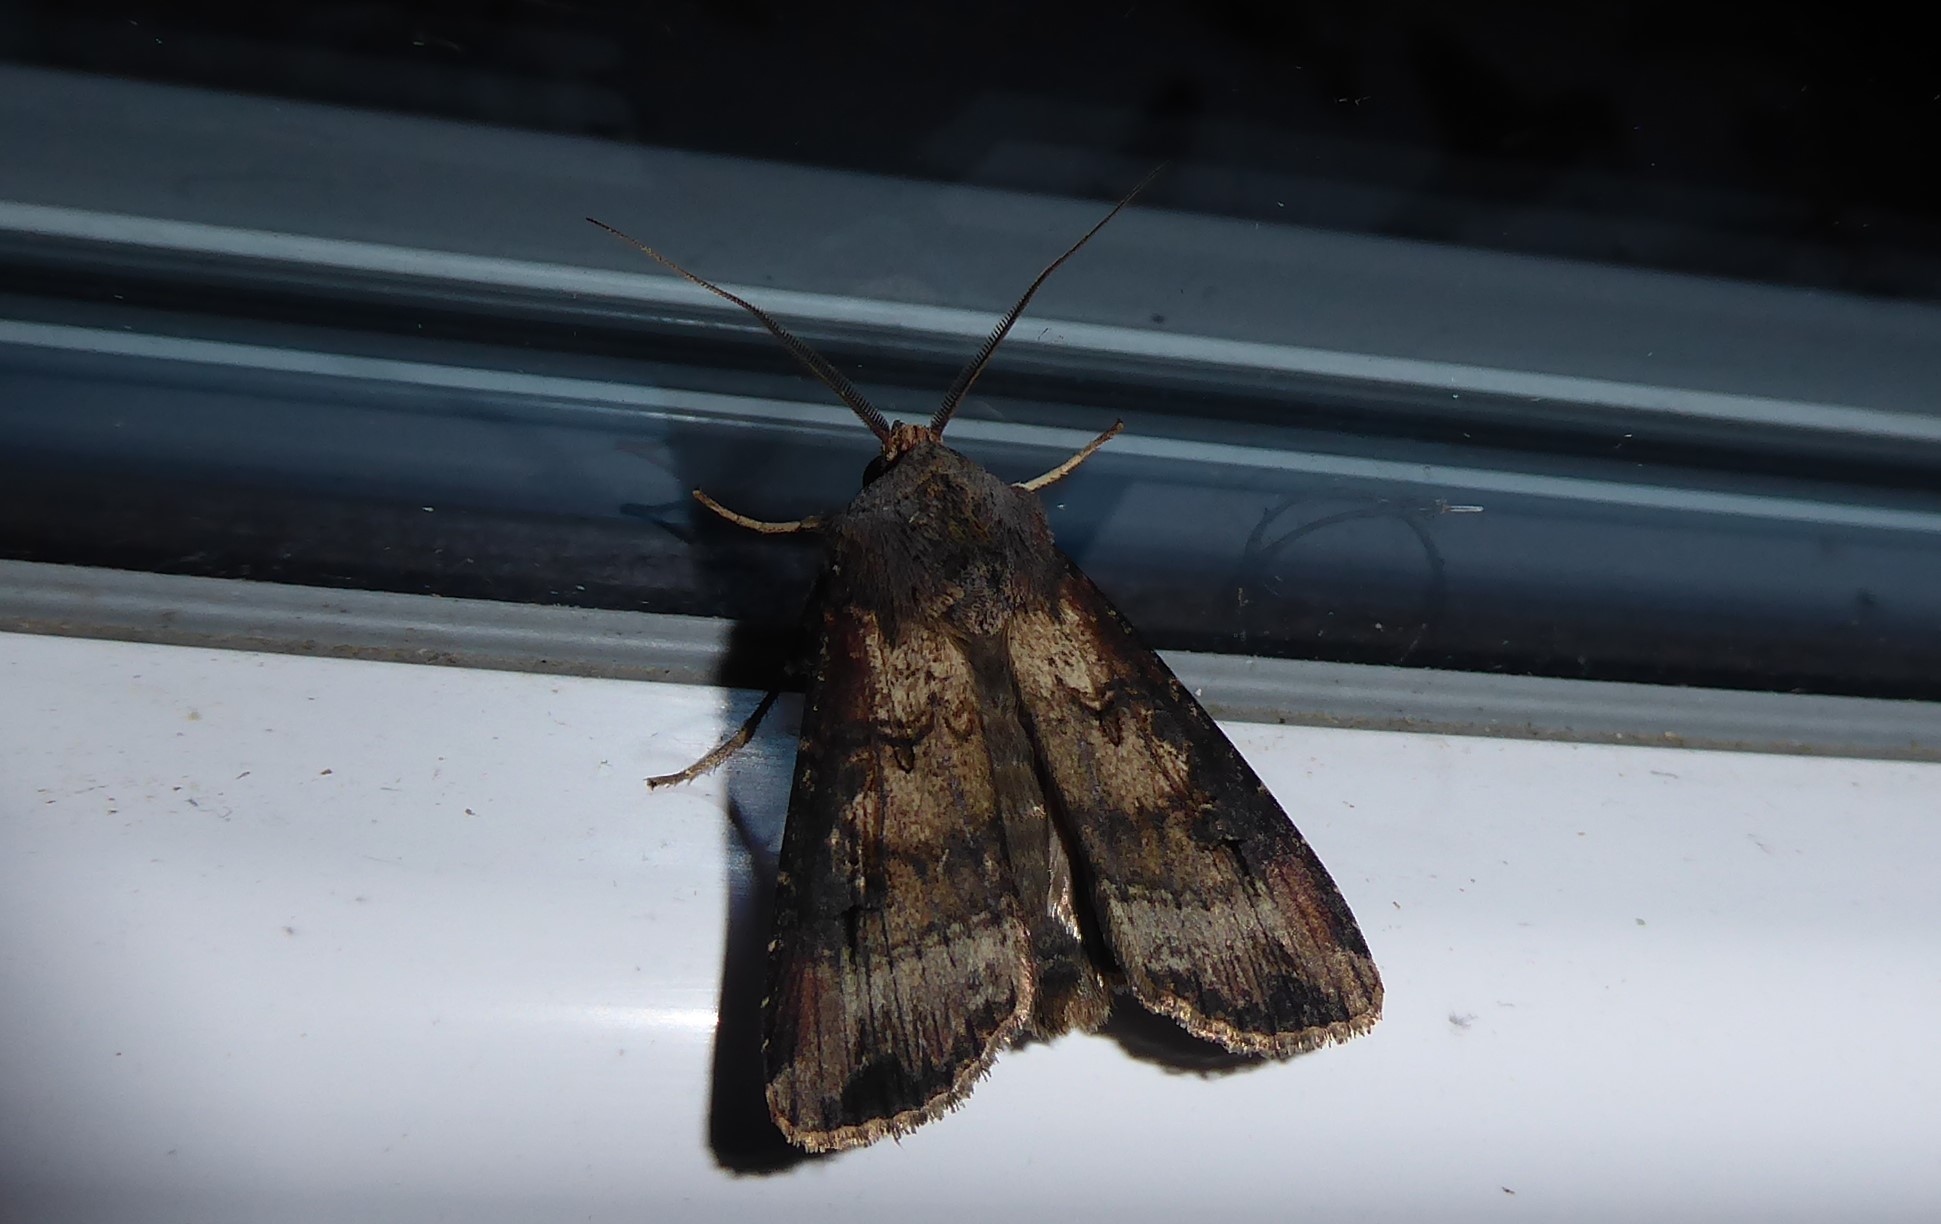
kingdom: Animalia
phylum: Arthropoda
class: Insecta
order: Lepidoptera
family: Noctuidae
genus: Agrotis
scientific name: Agrotis ipsilon
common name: Dark sword-grass
